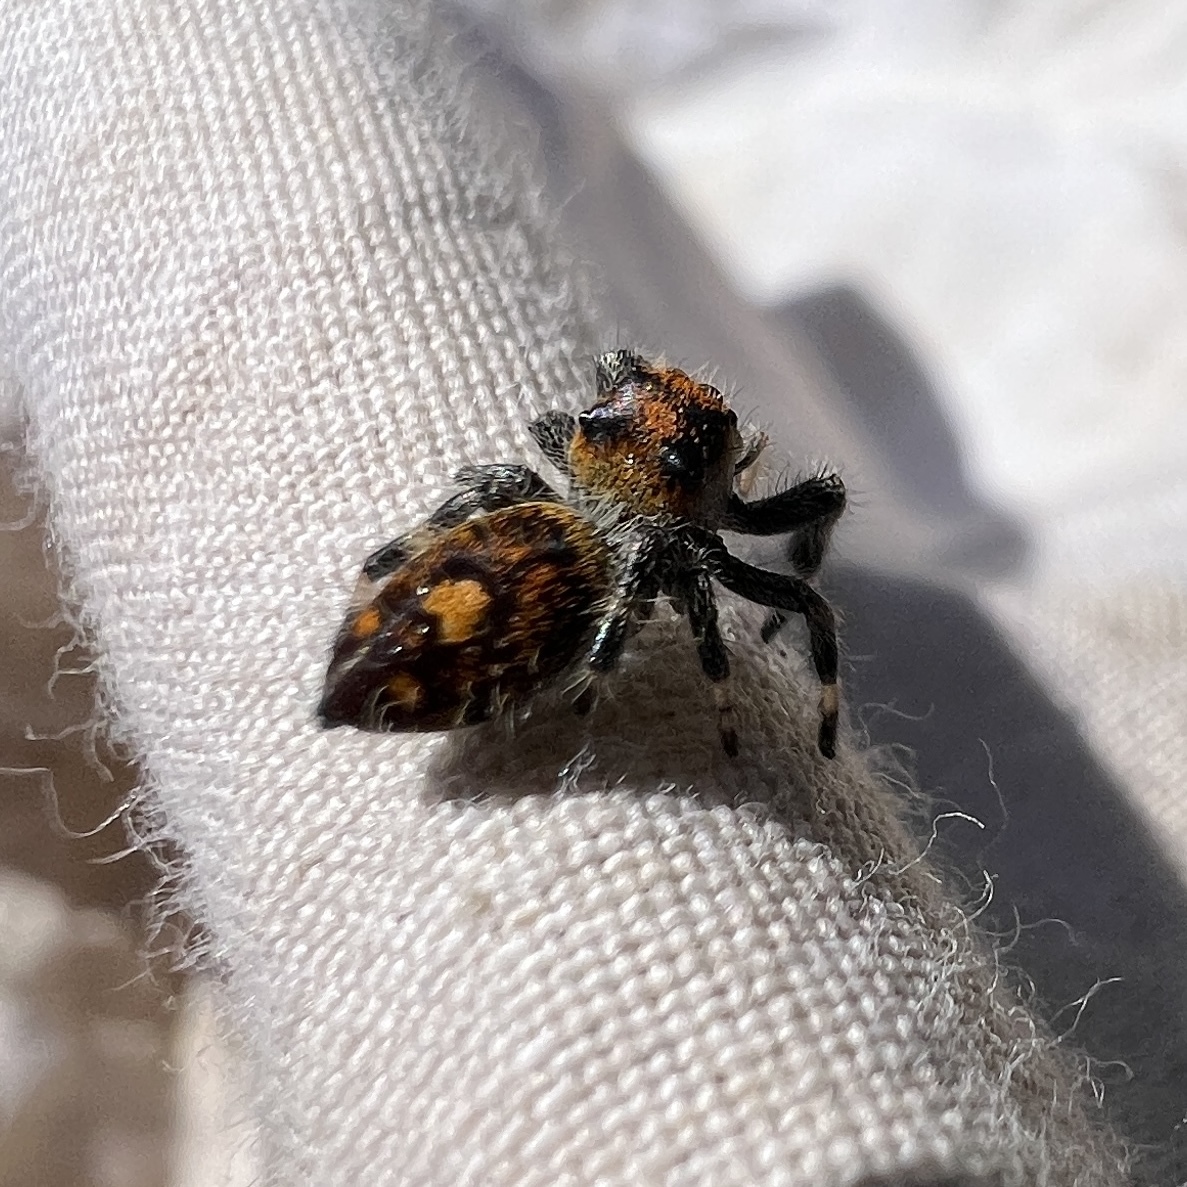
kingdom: Animalia
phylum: Arthropoda
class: Arachnida
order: Araneae
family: Salticidae
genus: Phidippus
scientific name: Phidippus regius
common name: Regal jumper
